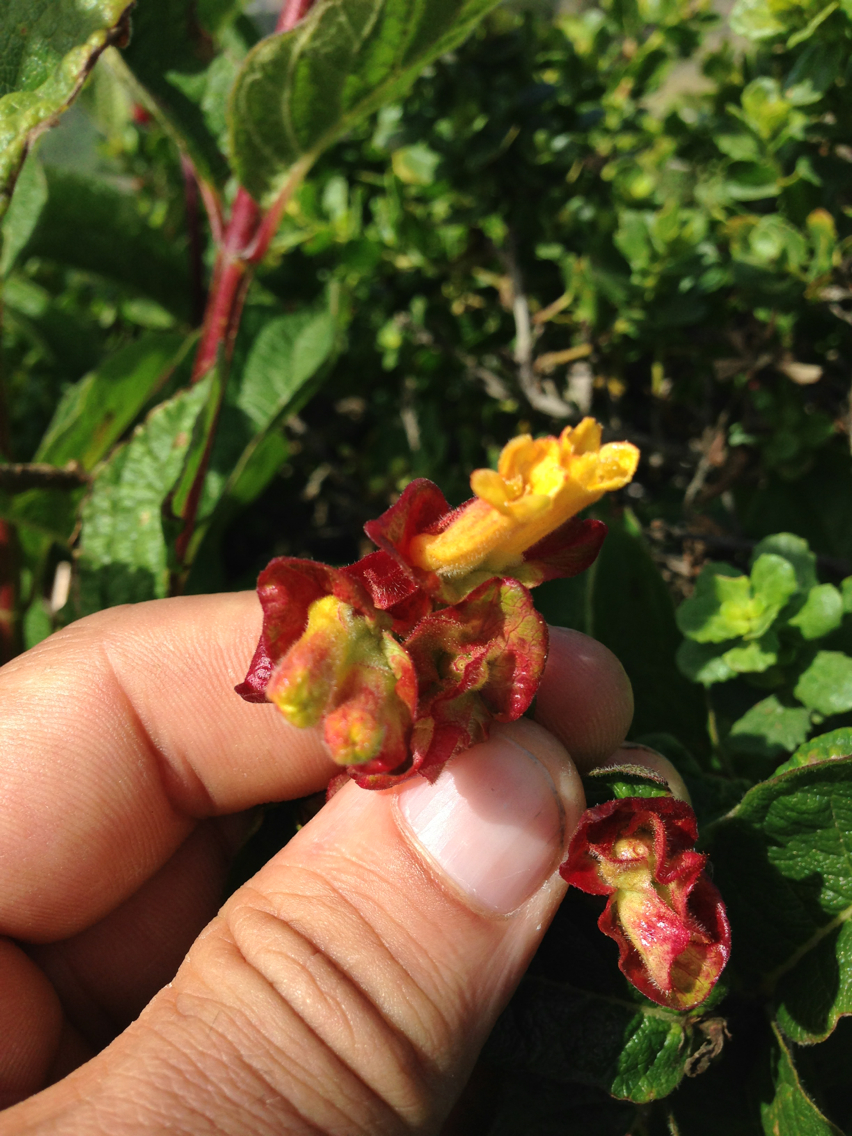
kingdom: Plantae
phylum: Tracheophyta
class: Magnoliopsida
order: Dipsacales
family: Caprifoliaceae
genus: Lonicera
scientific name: Lonicera involucrata
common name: Californian honeysuckle
